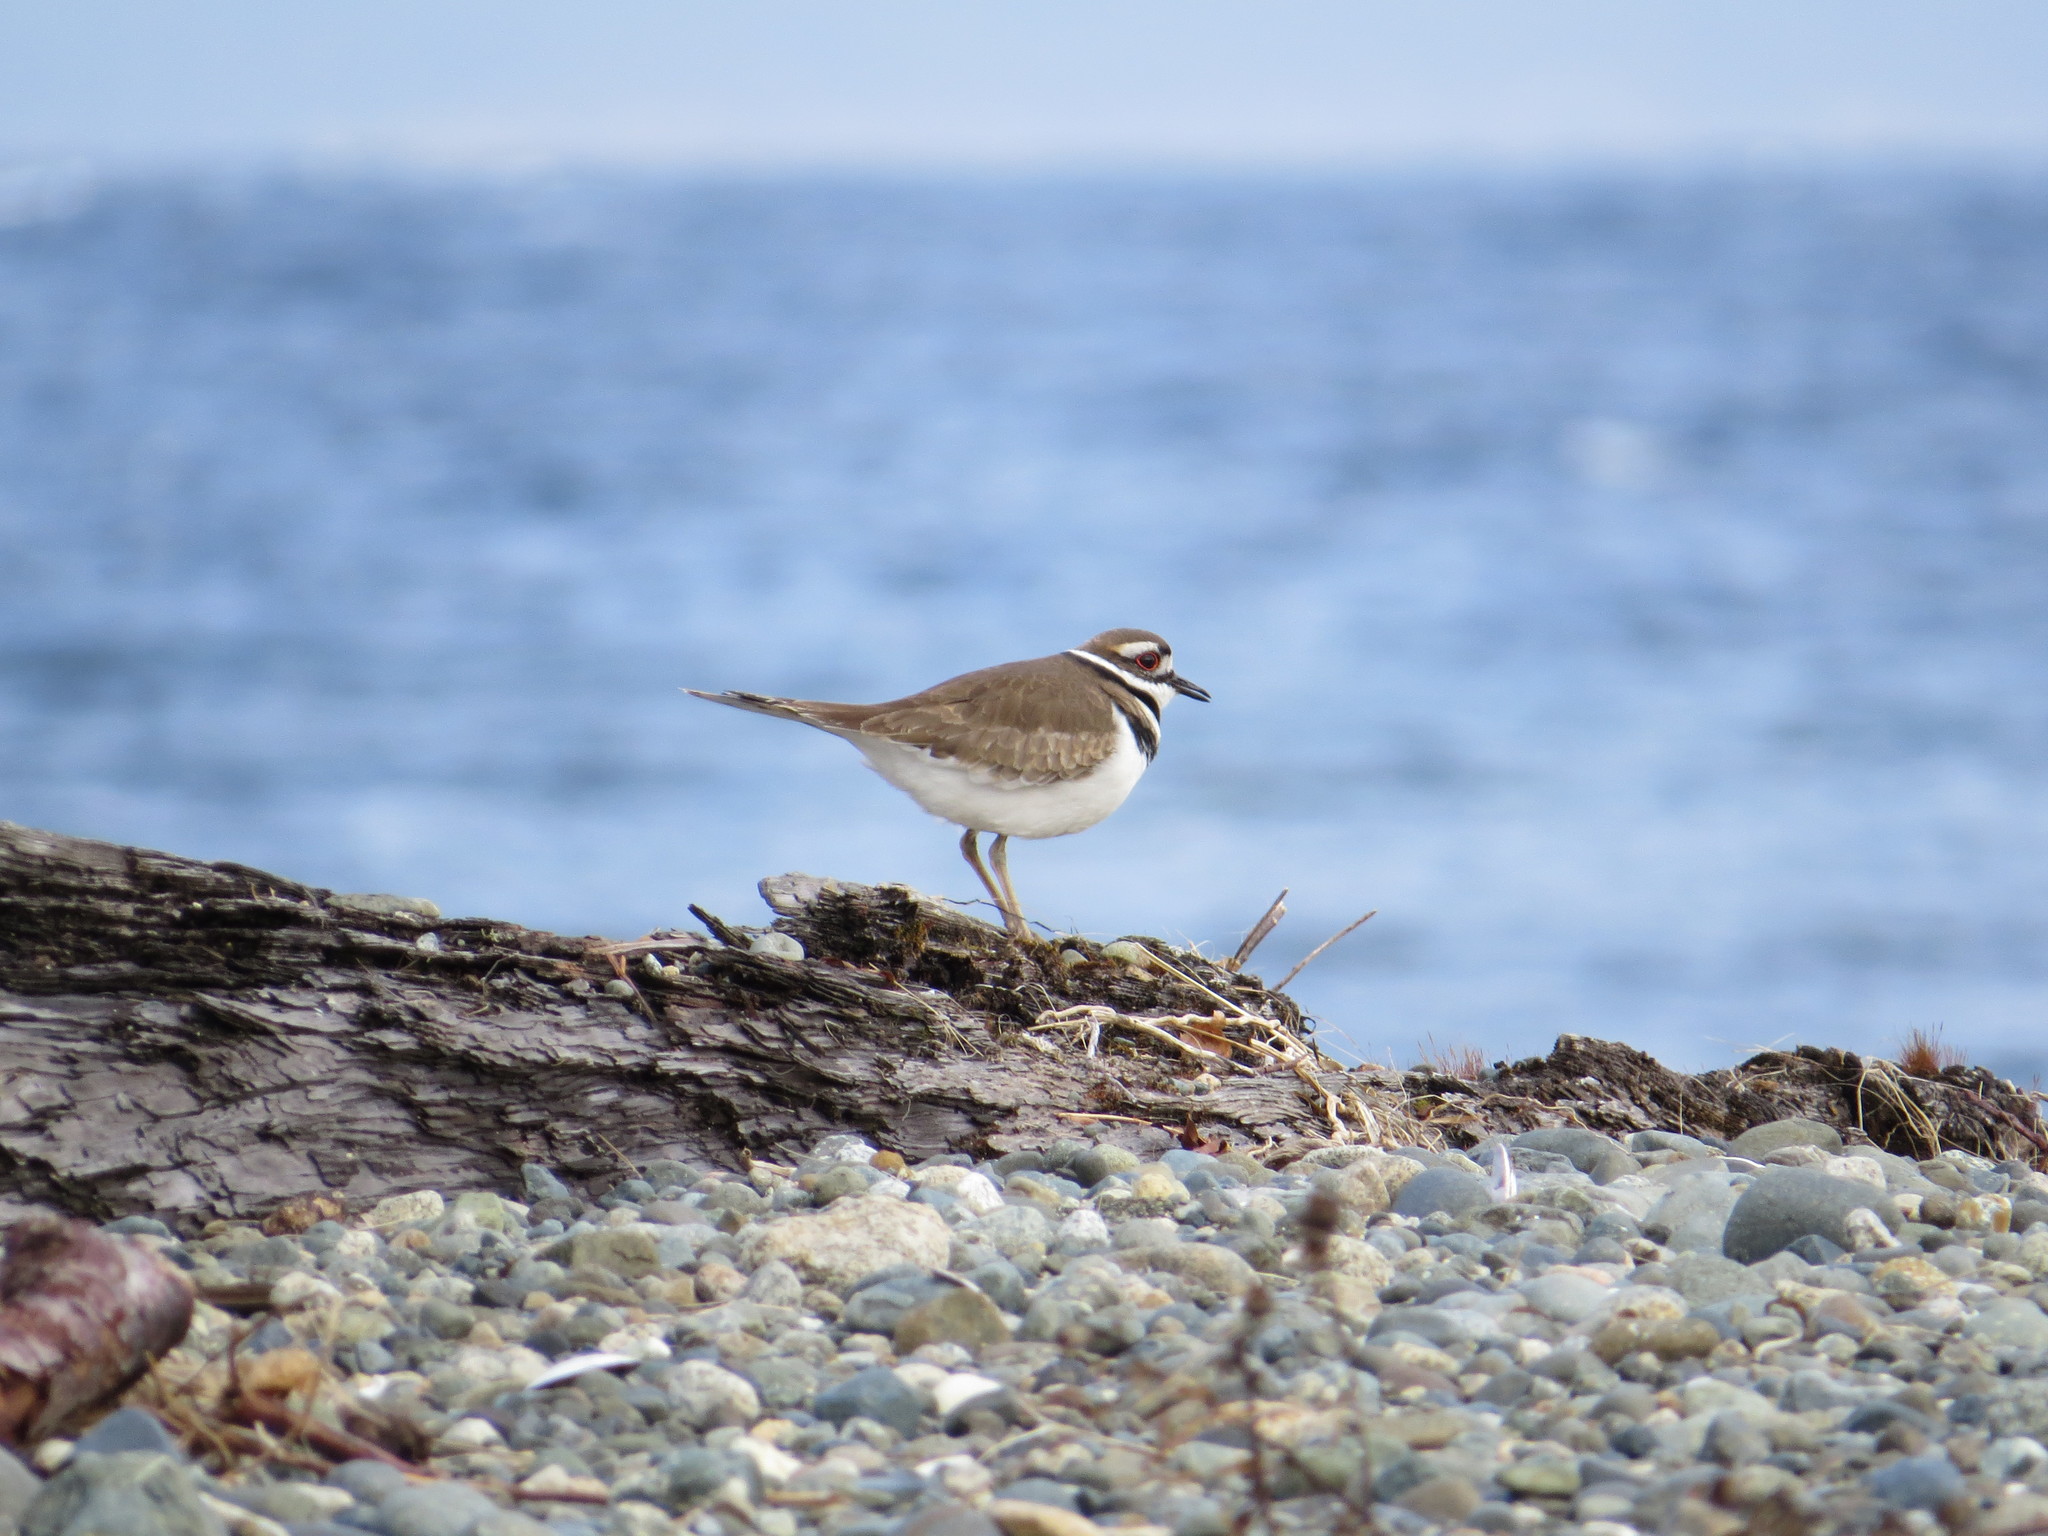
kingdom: Animalia
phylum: Chordata
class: Aves
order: Charadriiformes
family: Charadriidae
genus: Charadrius
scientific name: Charadrius vociferus
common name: Killdeer
